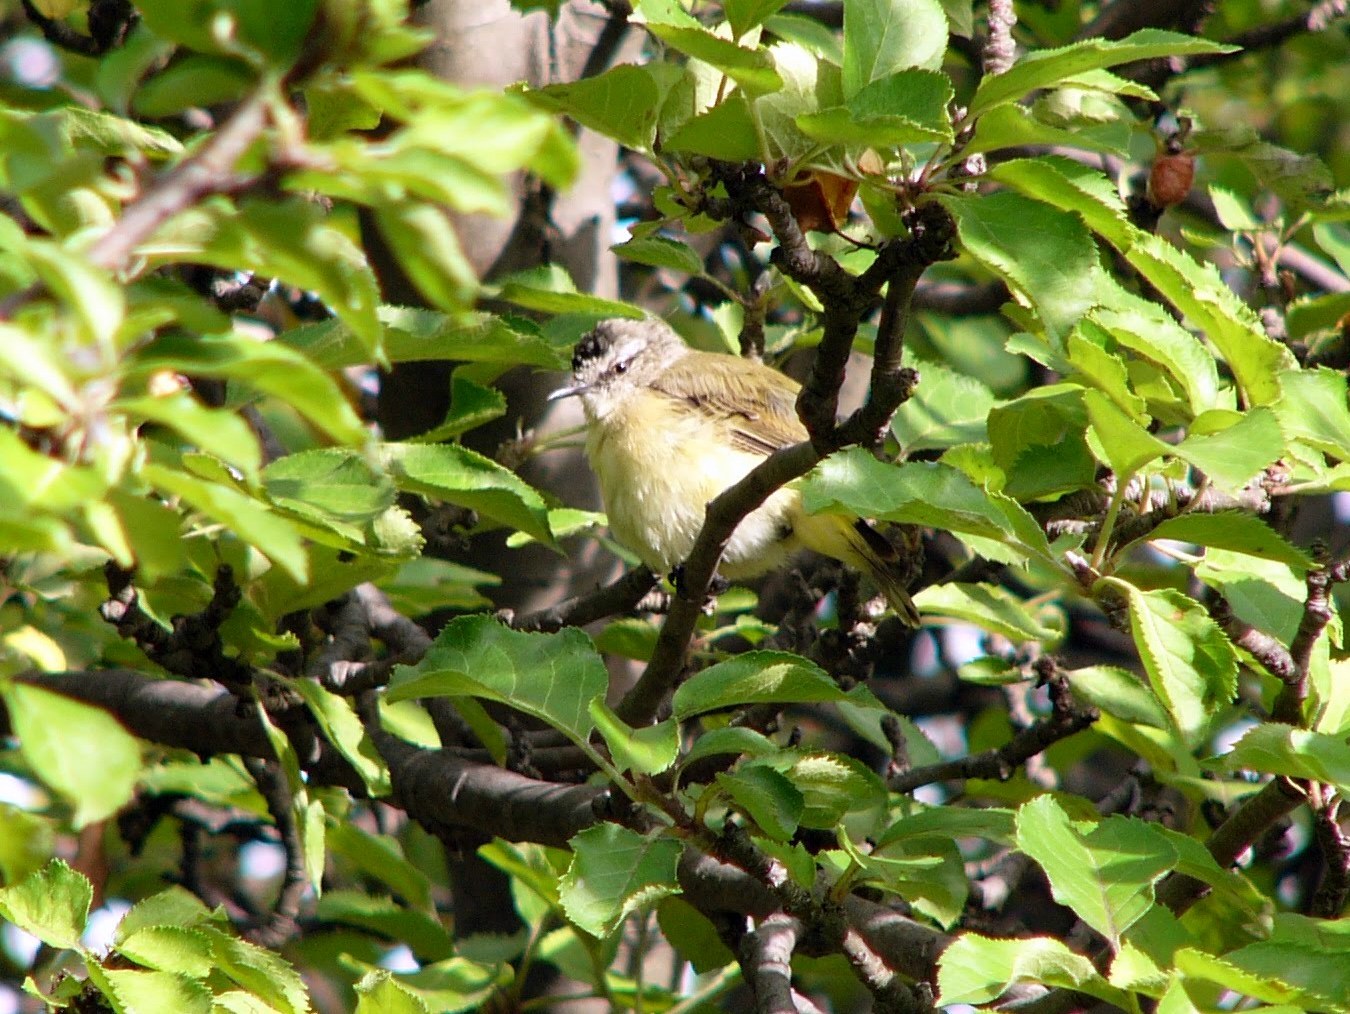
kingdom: Animalia
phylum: Chordata
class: Aves
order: Passeriformes
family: Acanthizidae
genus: Acanthiza
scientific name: Acanthiza chrysorrhoa
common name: Yellow-rumped thornbill
